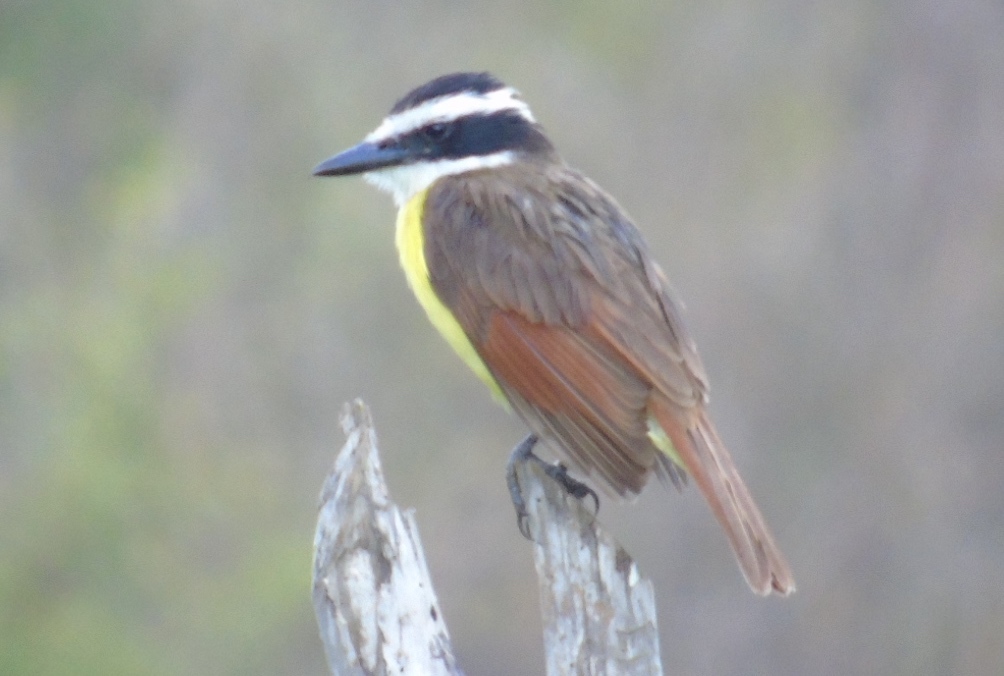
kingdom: Animalia
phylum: Chordata
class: Aves
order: Passeriformes
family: Tyrannidae
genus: Pitangus
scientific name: Pitangus sulphuratus
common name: Great kiskadee
